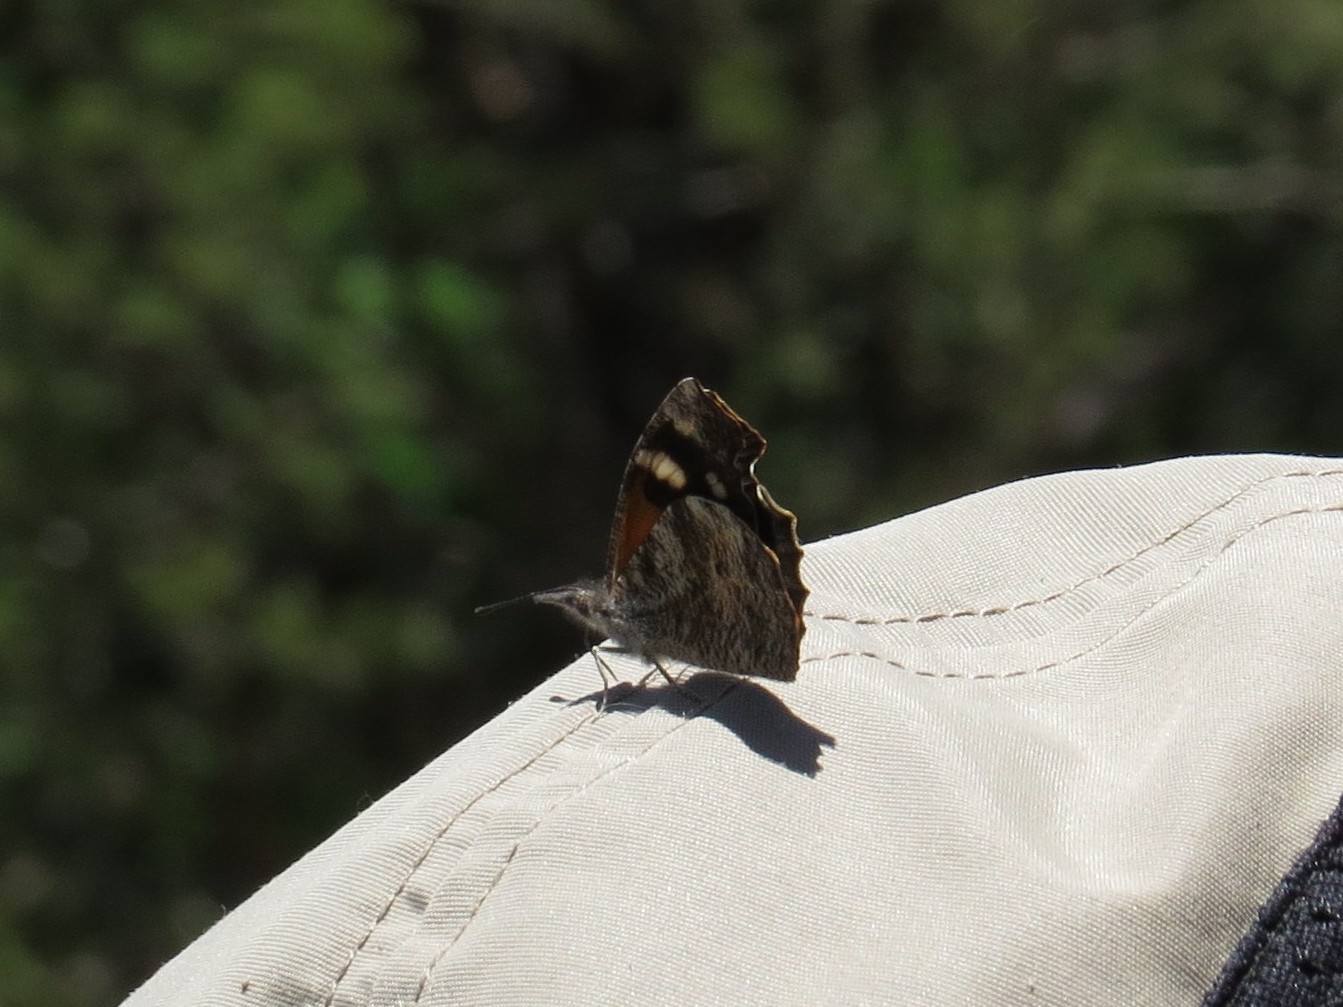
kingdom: Animalia
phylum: Arthropoda
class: Insecta
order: Lepidoptera
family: Nymphalidae
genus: Libytheana
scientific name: Libytheana carinenta
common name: American snout
